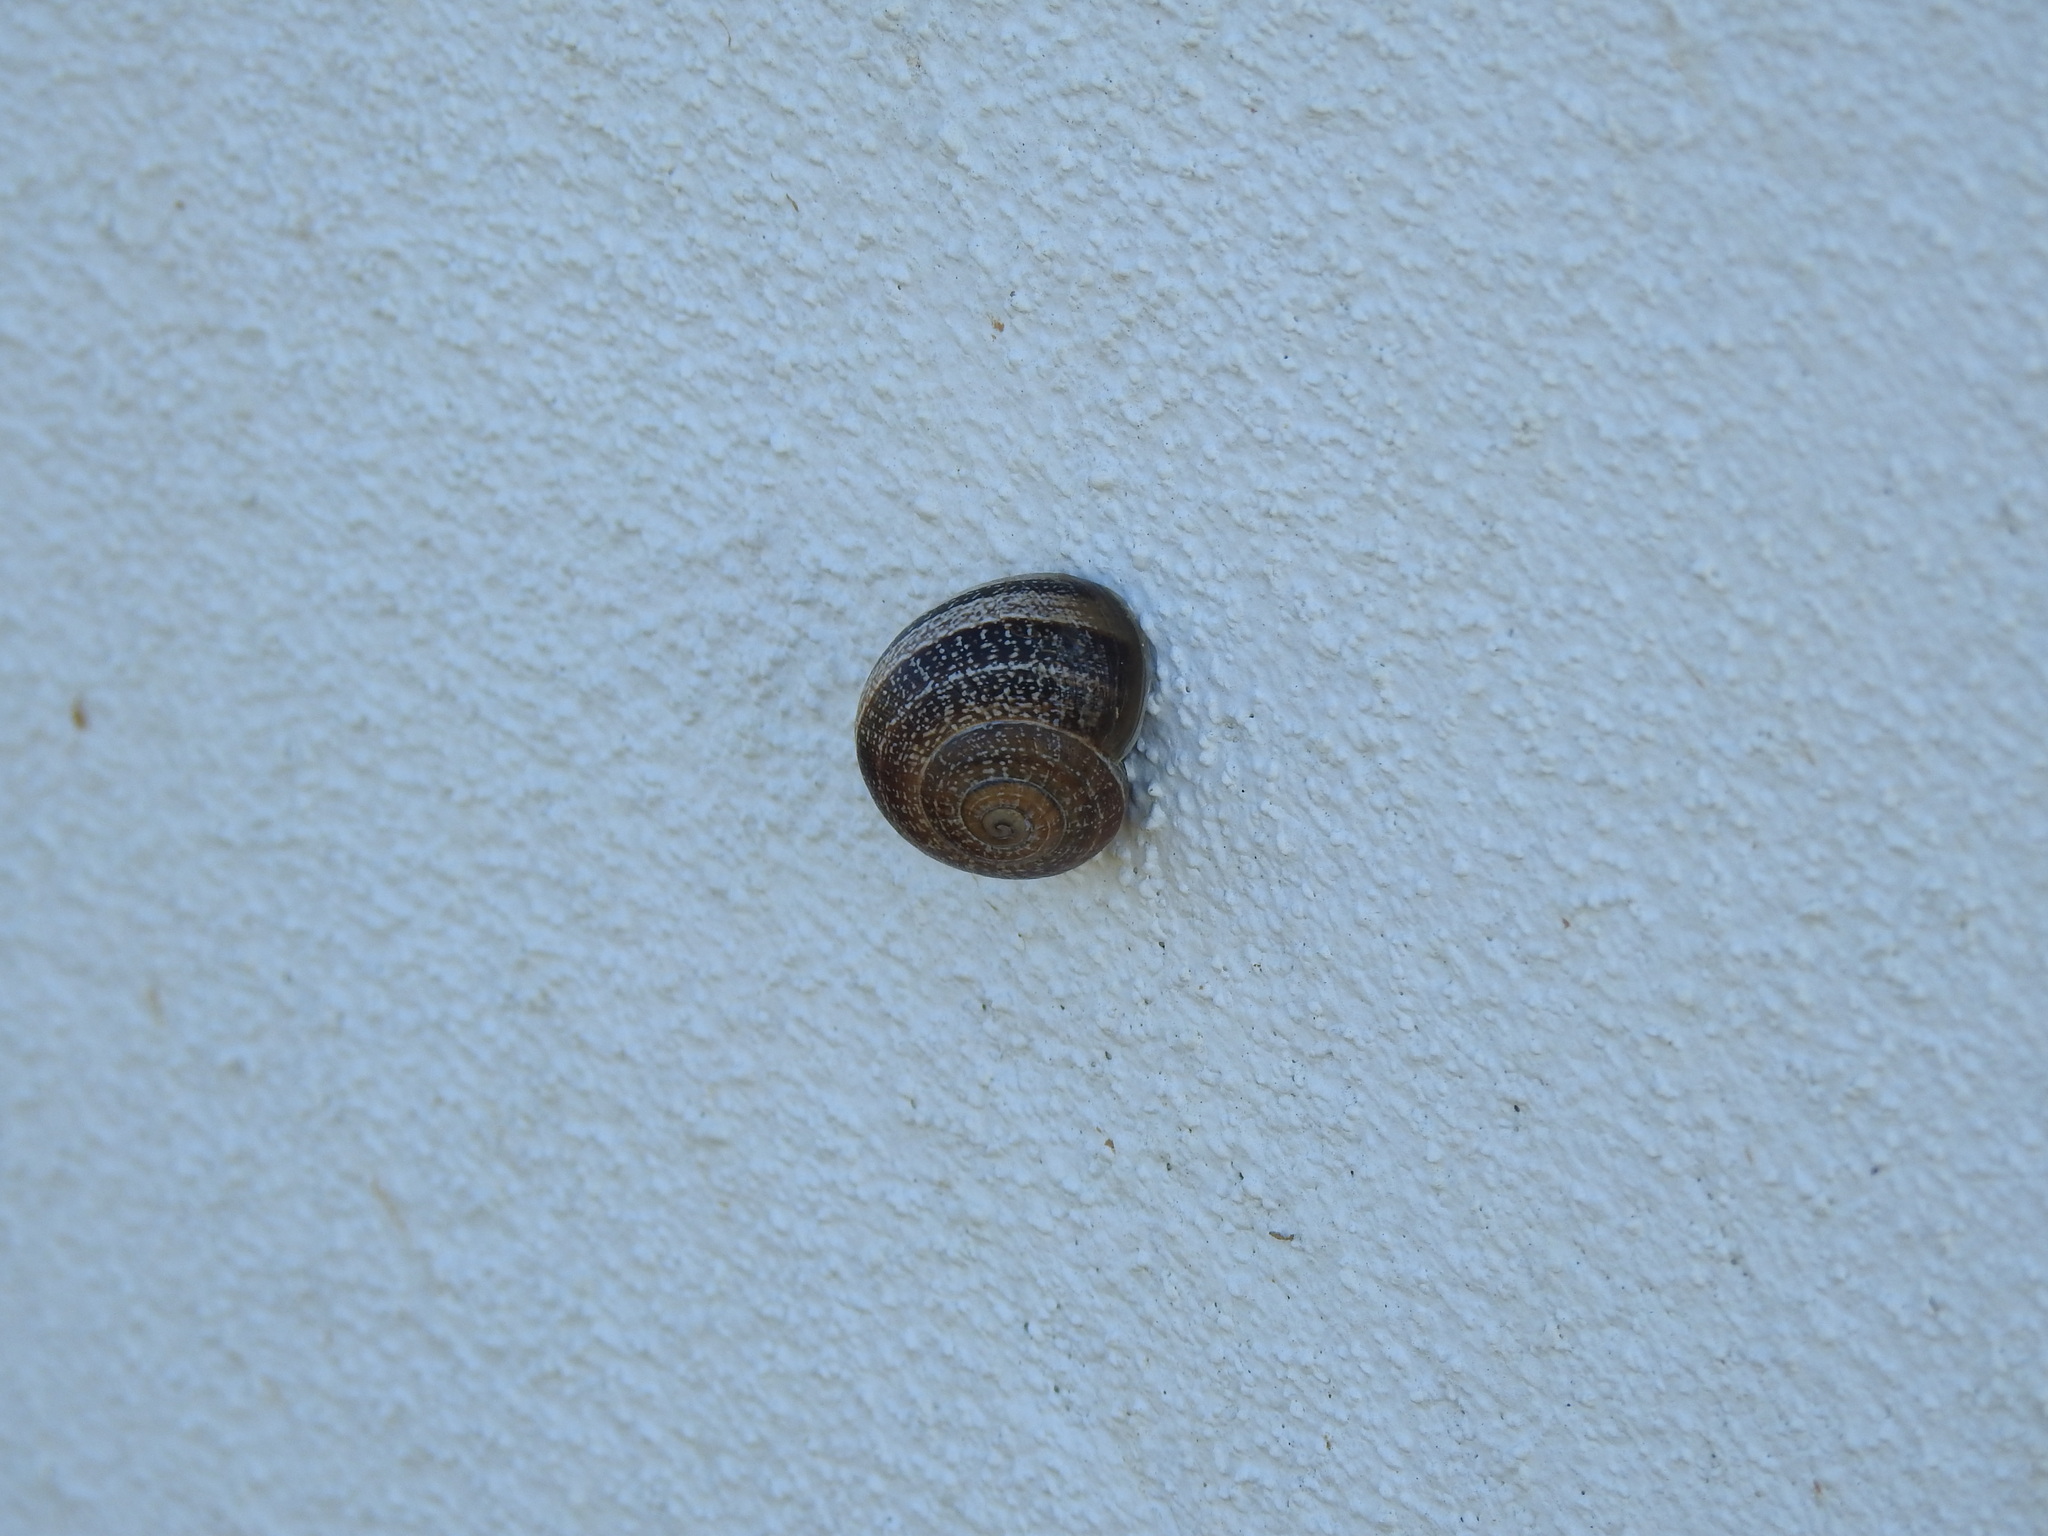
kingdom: Animalia
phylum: Mollusca
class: Gastropoda
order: Stylommatophora
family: Helicidae
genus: Otala
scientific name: Otala lactea
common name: Milk snail
